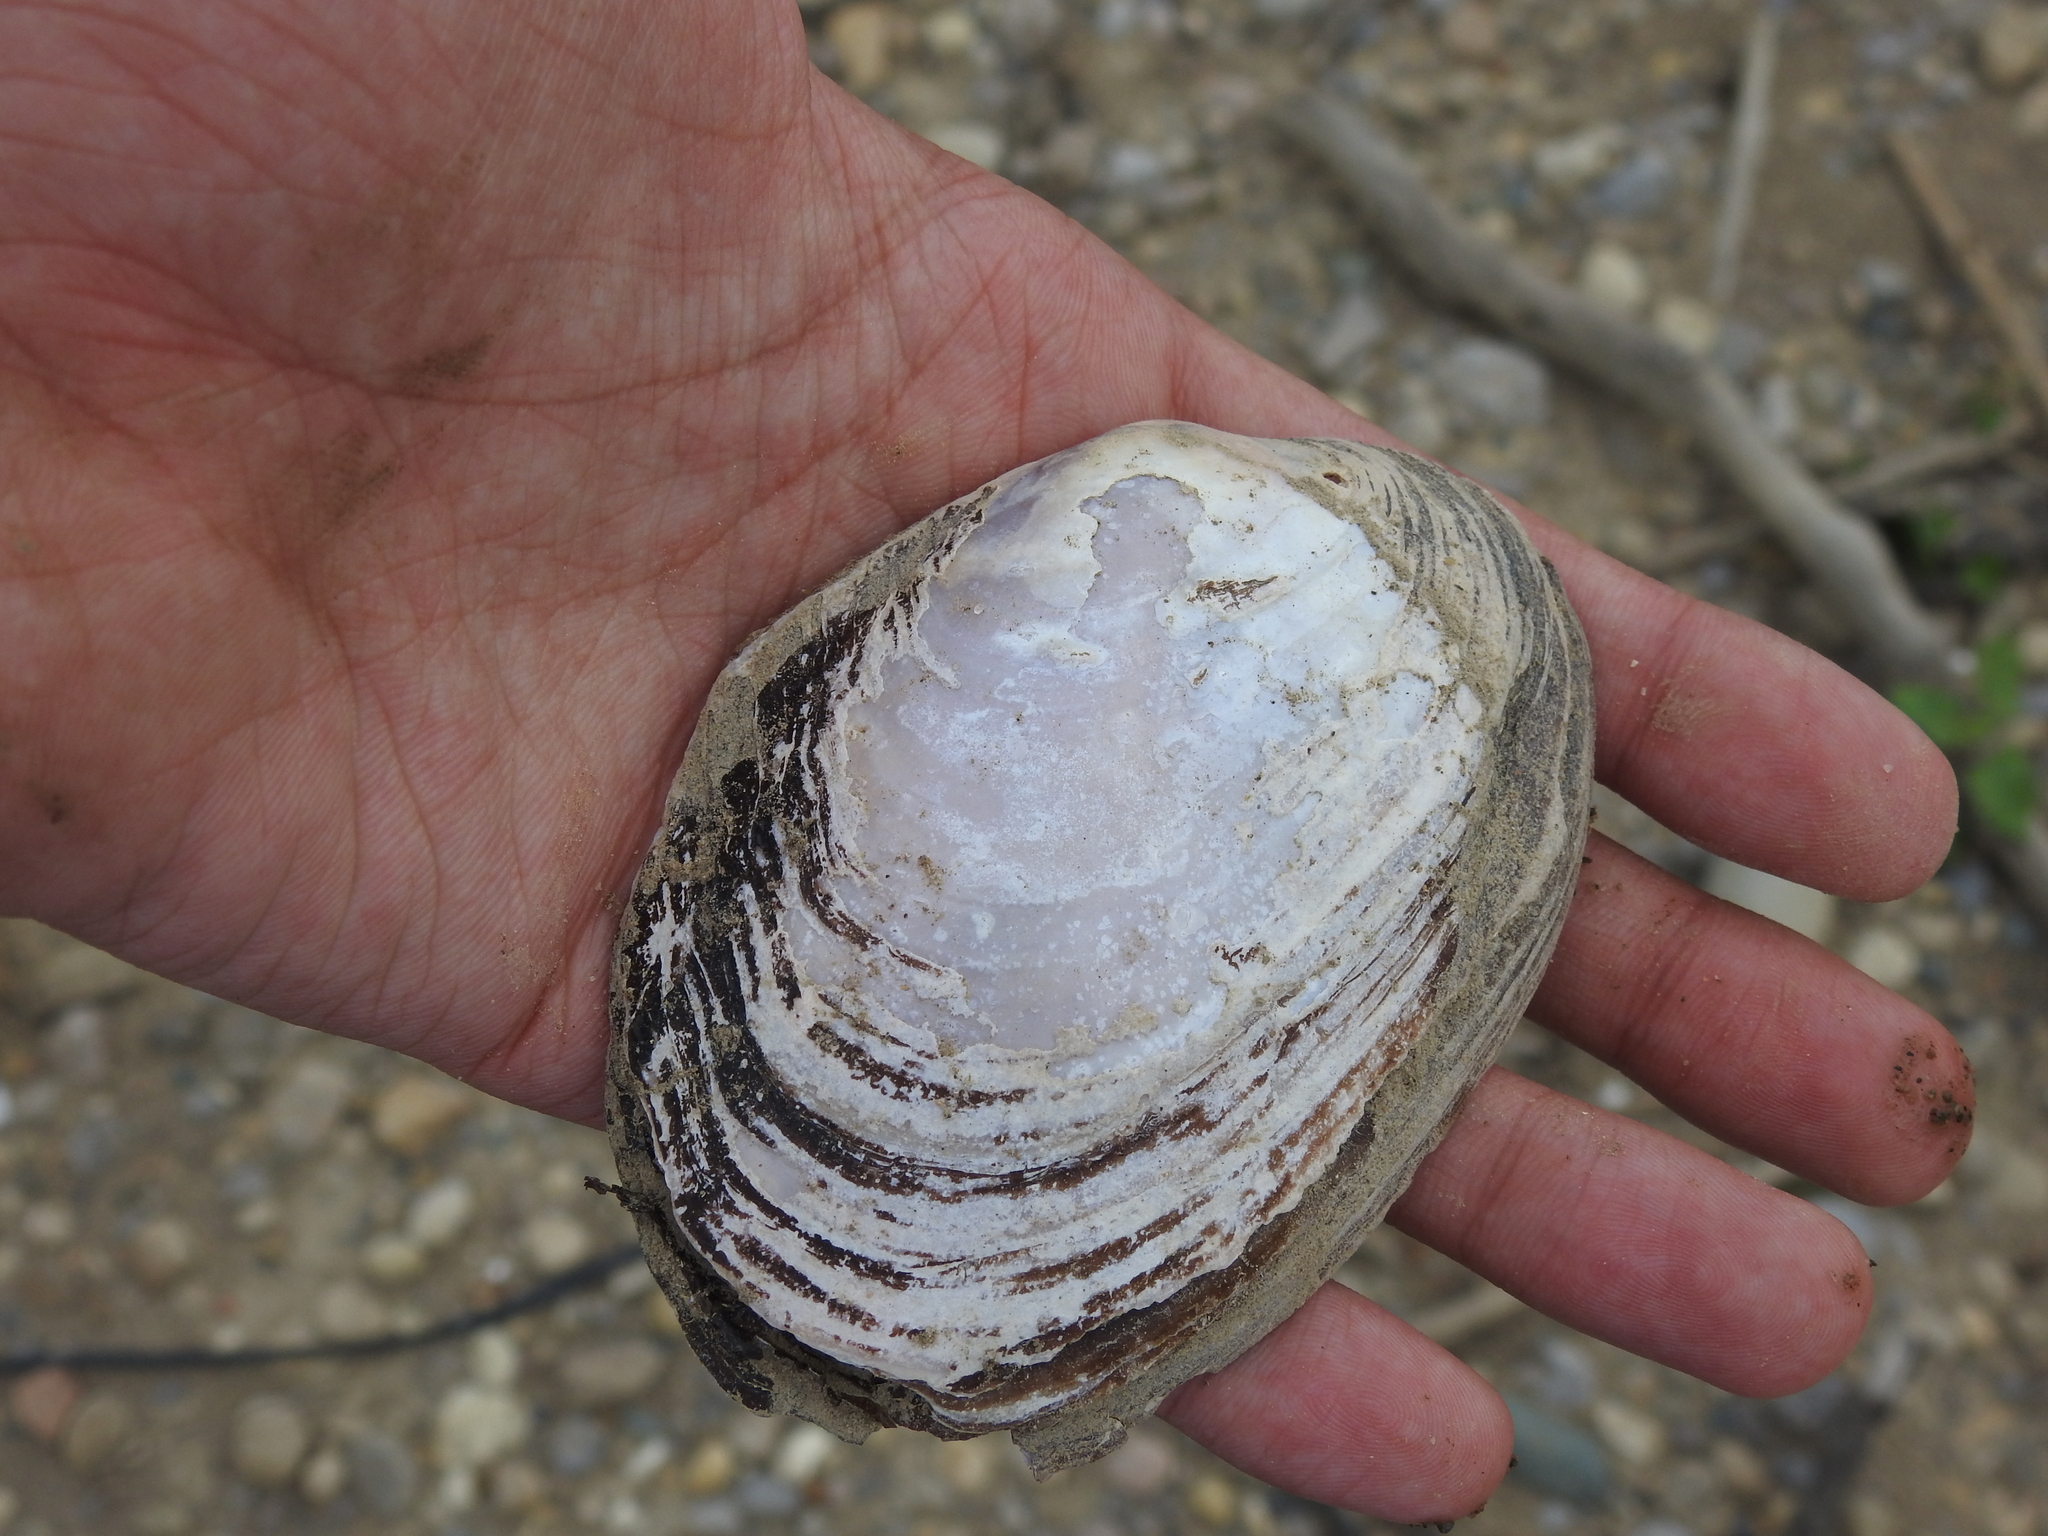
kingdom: Animalia
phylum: Mollusca
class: Bivalvia
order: Unionida
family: Unionidae
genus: Potamilus
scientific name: Potamilus alatus
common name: Pink heelsplitter
